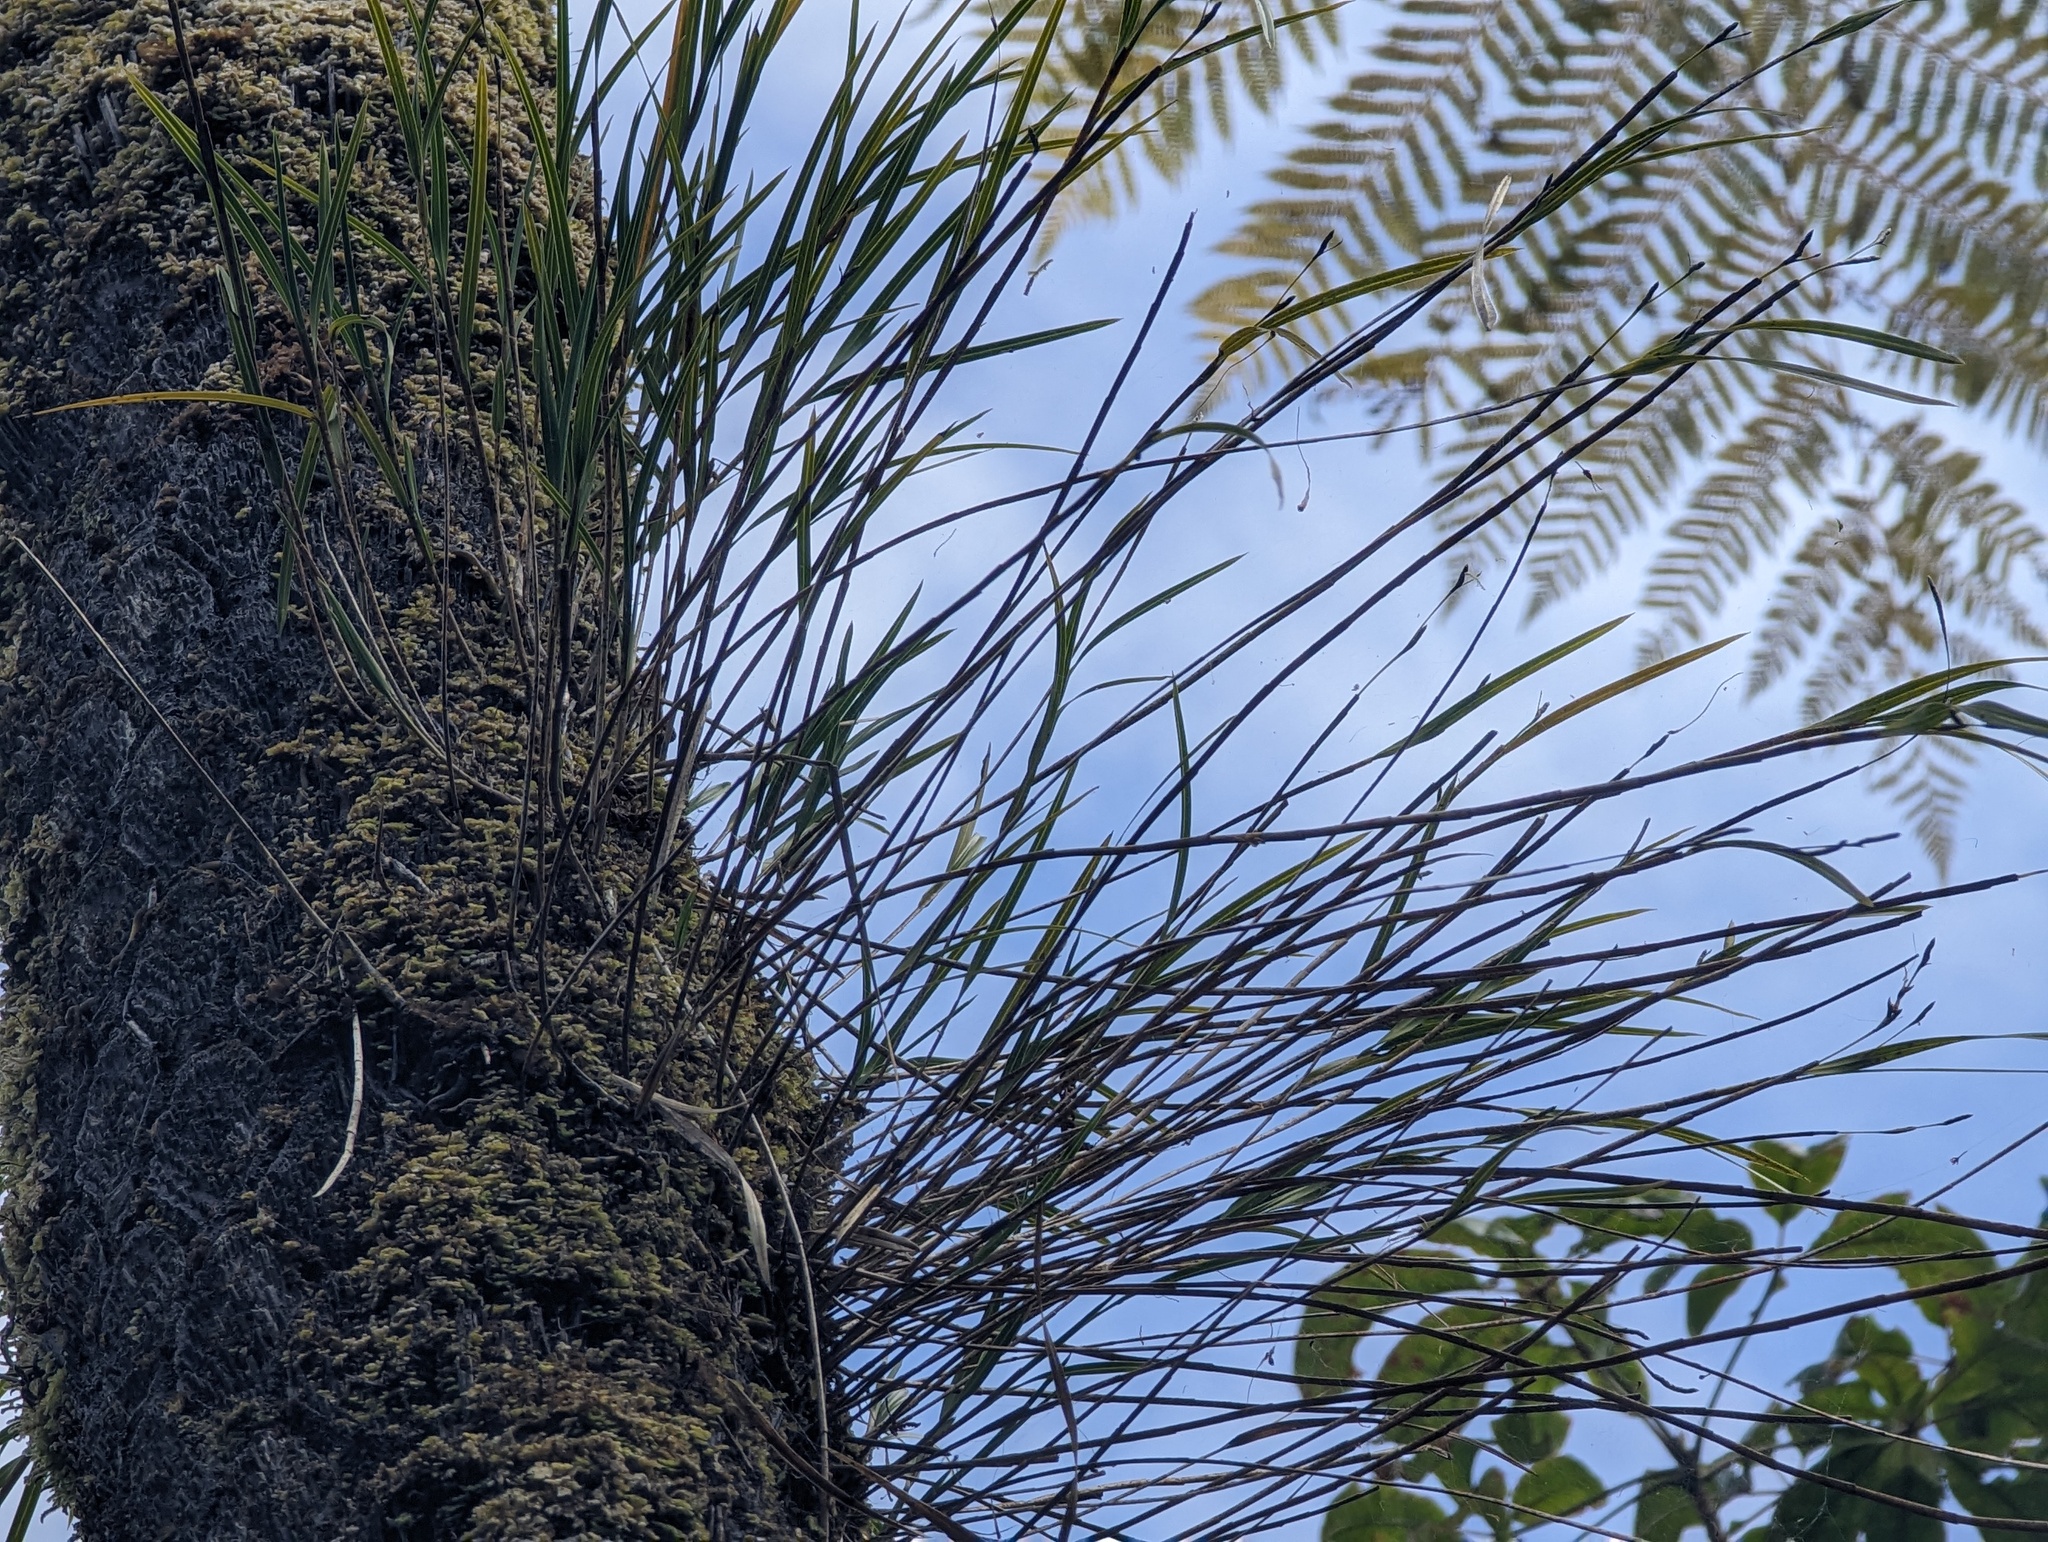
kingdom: Plantae
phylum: Tracheophyta
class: Liliopsida
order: Asparagales
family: Orchidaceae
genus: Earina
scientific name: Earina mucronata
